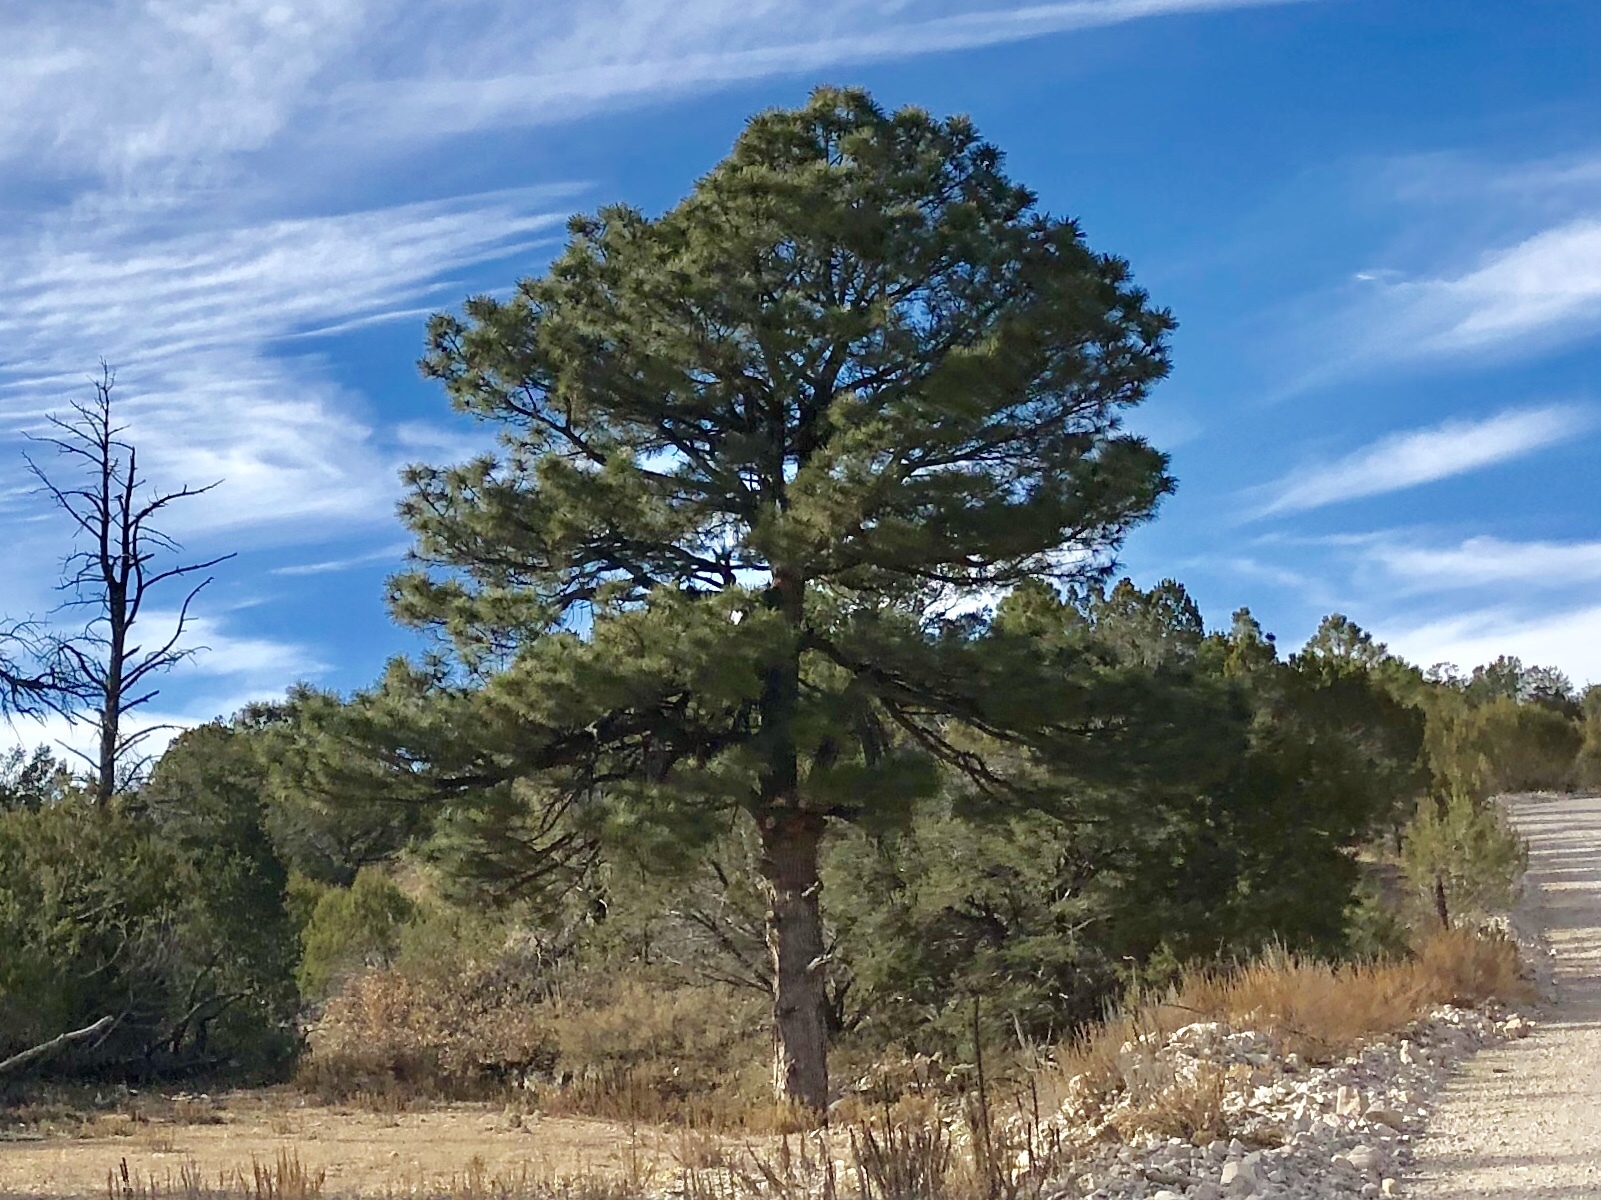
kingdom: Plantae
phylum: Tracheophyta
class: Pinopsida
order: Pinales
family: Pinaceae
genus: Pinus
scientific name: Pinus ponderosa
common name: Western yellow-pine
